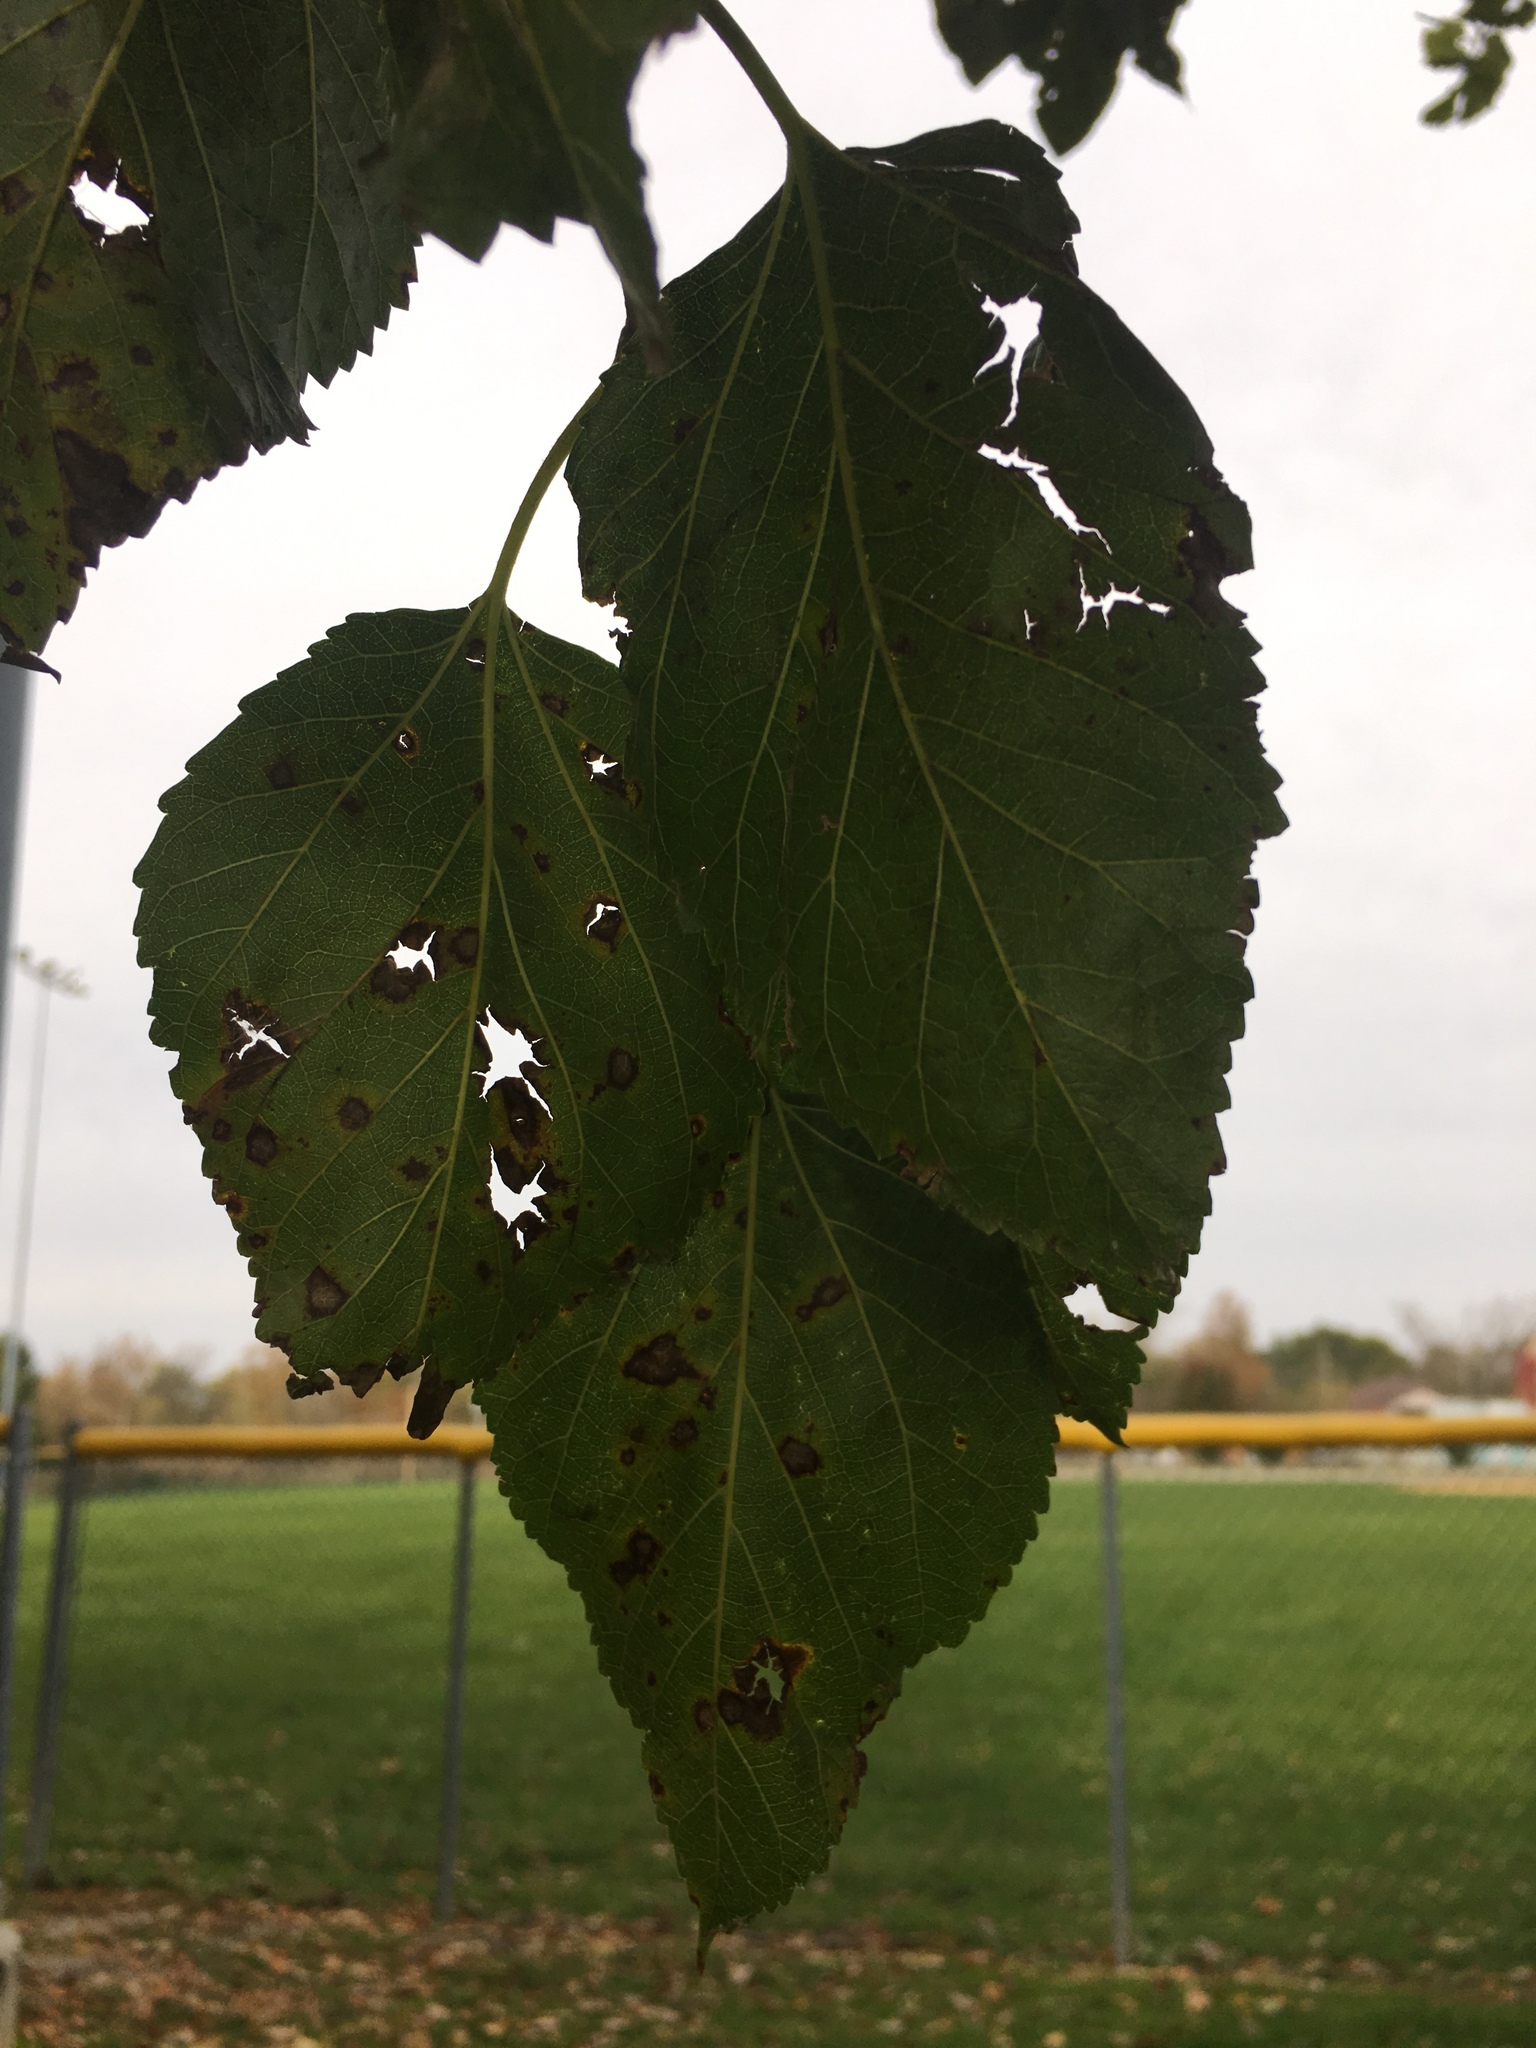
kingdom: Plantae
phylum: Tracheophyta
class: Magnoliopsida
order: Rosales
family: Moraceae
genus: Morus
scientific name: Morus alba
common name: White mulberry
